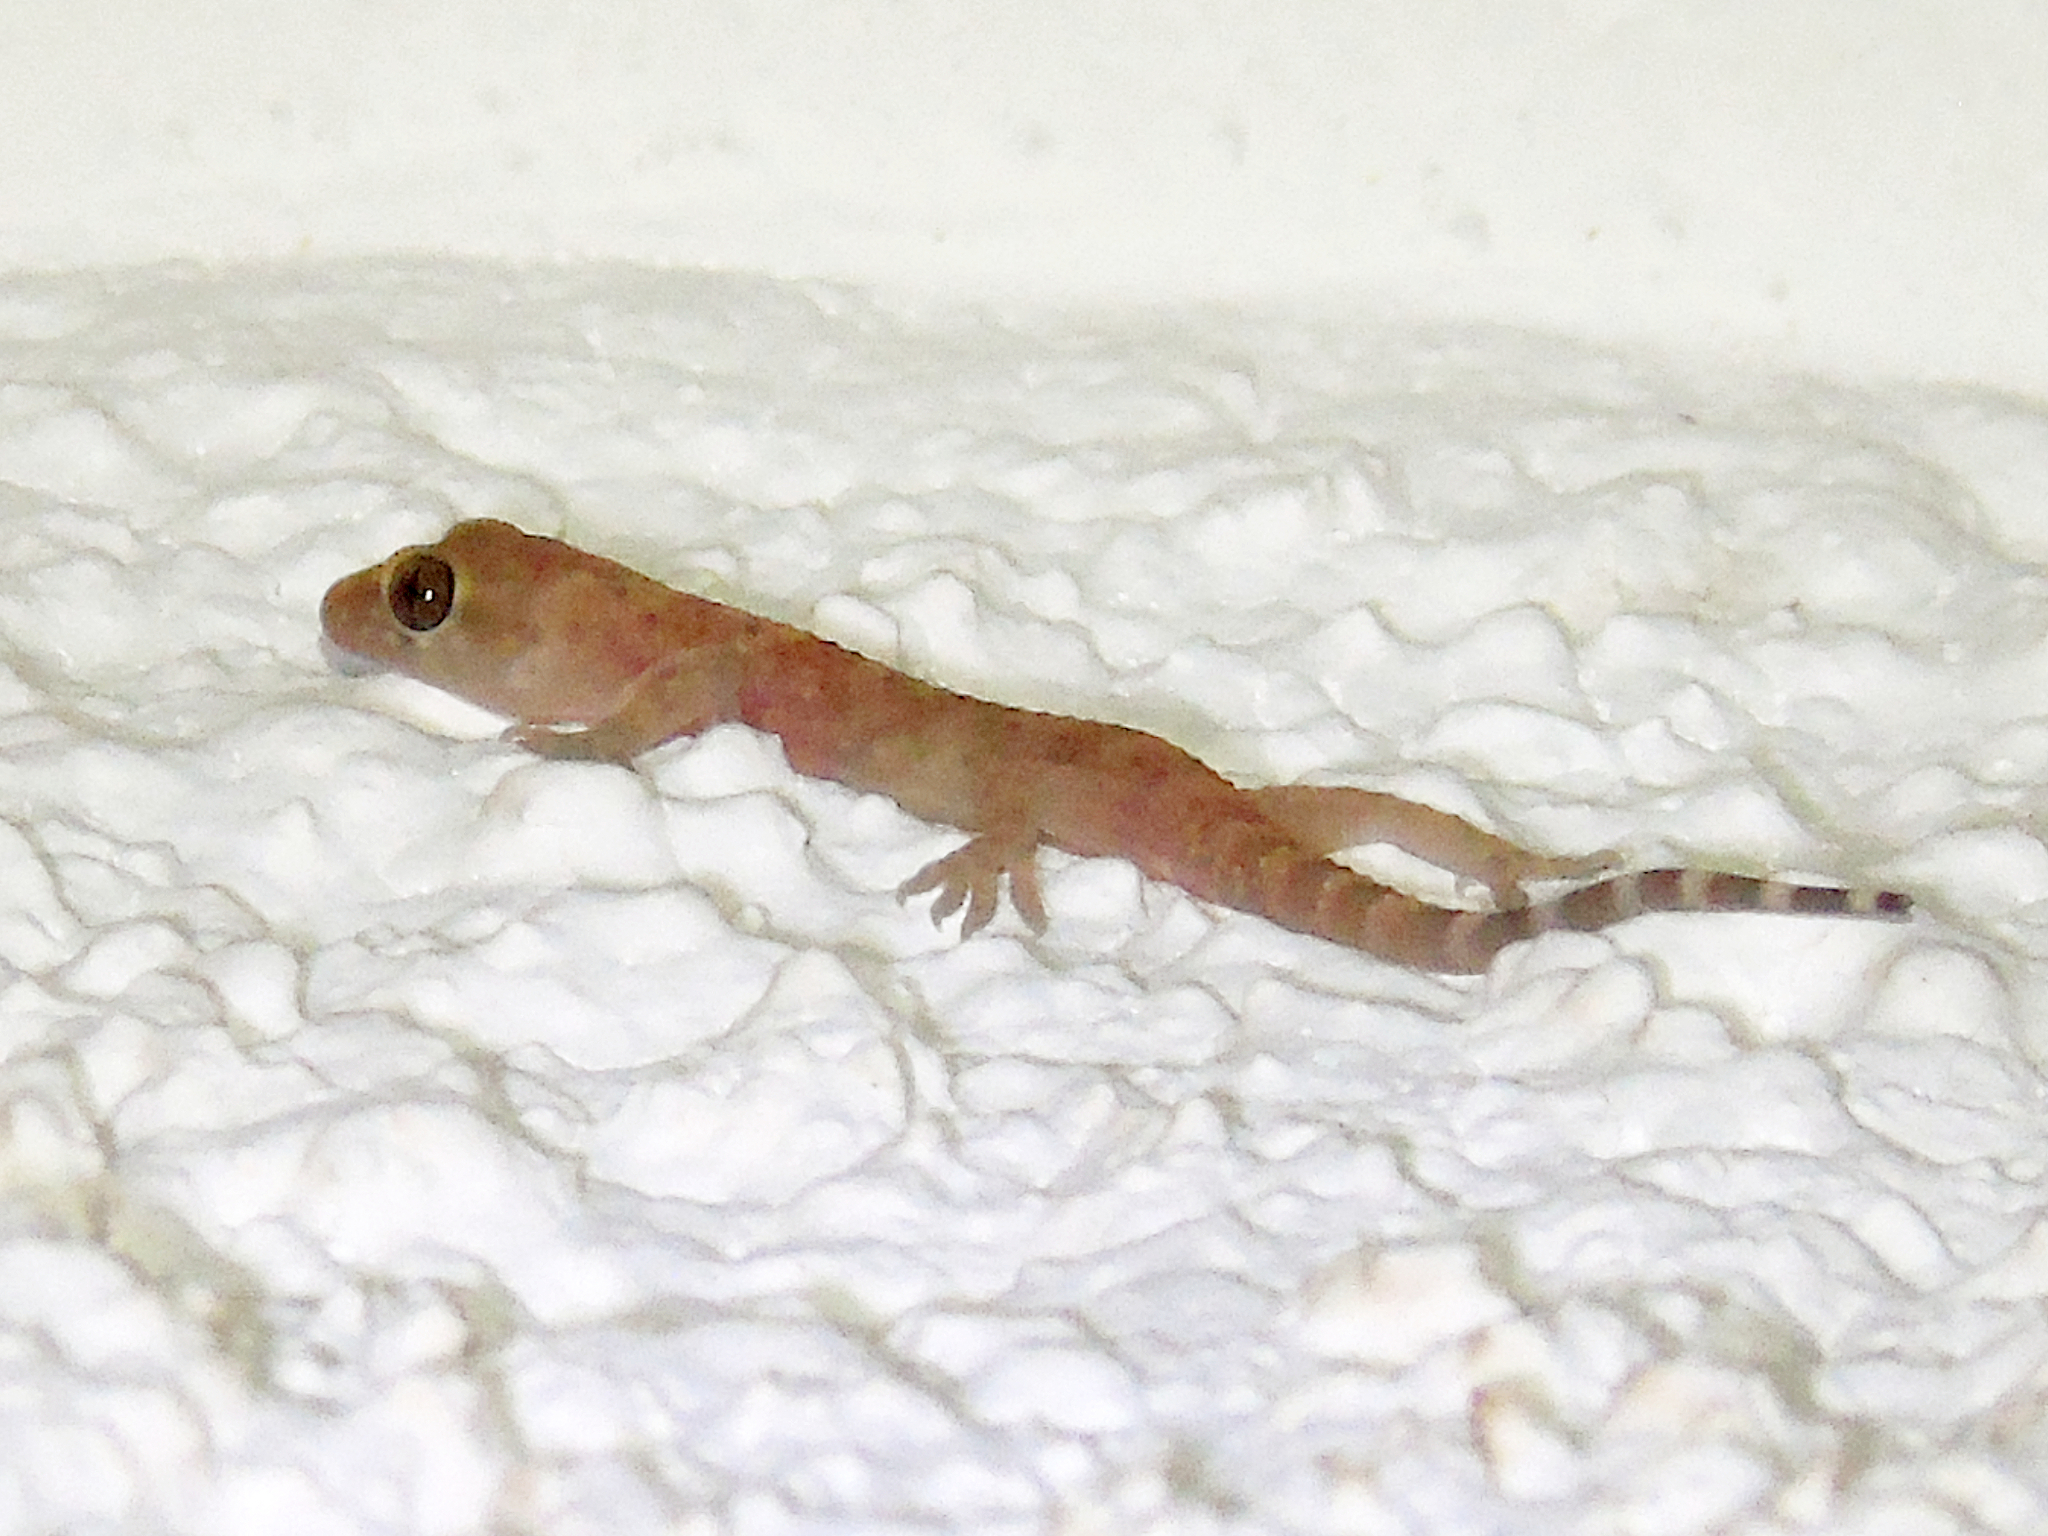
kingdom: Animalia
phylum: Chordata
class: Squamata
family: Gekkonidae
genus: Hemidactylus
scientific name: Hemidactylus turcicus
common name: Turkish gecko
